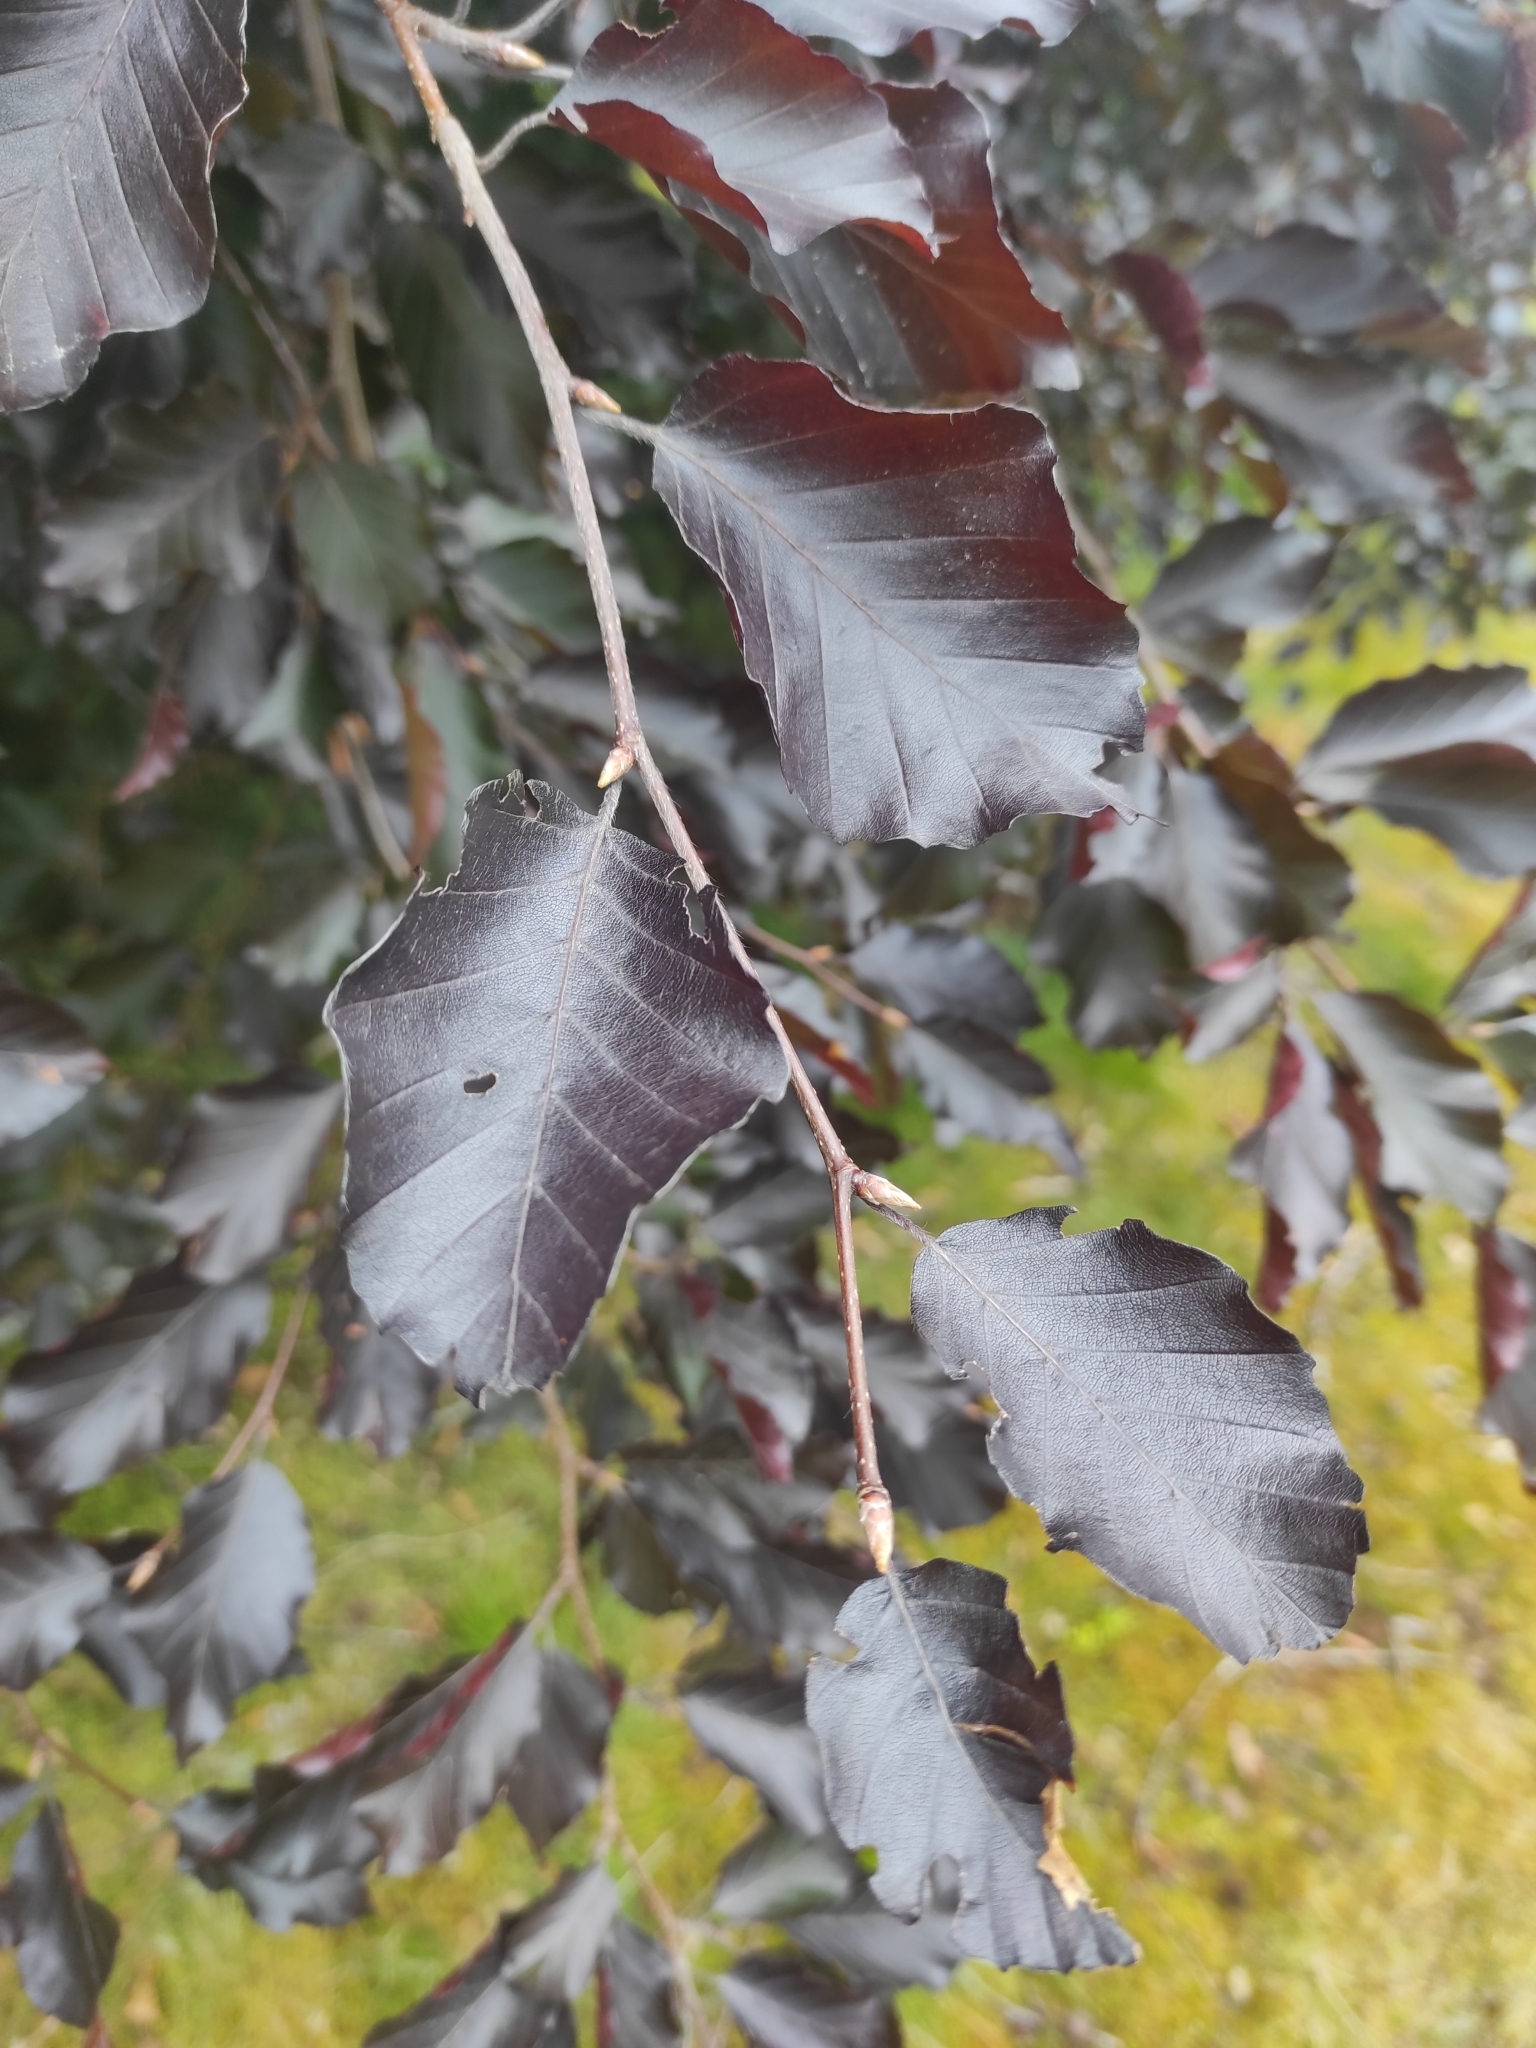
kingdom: Plantae
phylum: Tracheophyta
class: Magnoliopsida
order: Fagales
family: Fagaceae
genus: Fagus
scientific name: Fagus sylvatica
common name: Beech
